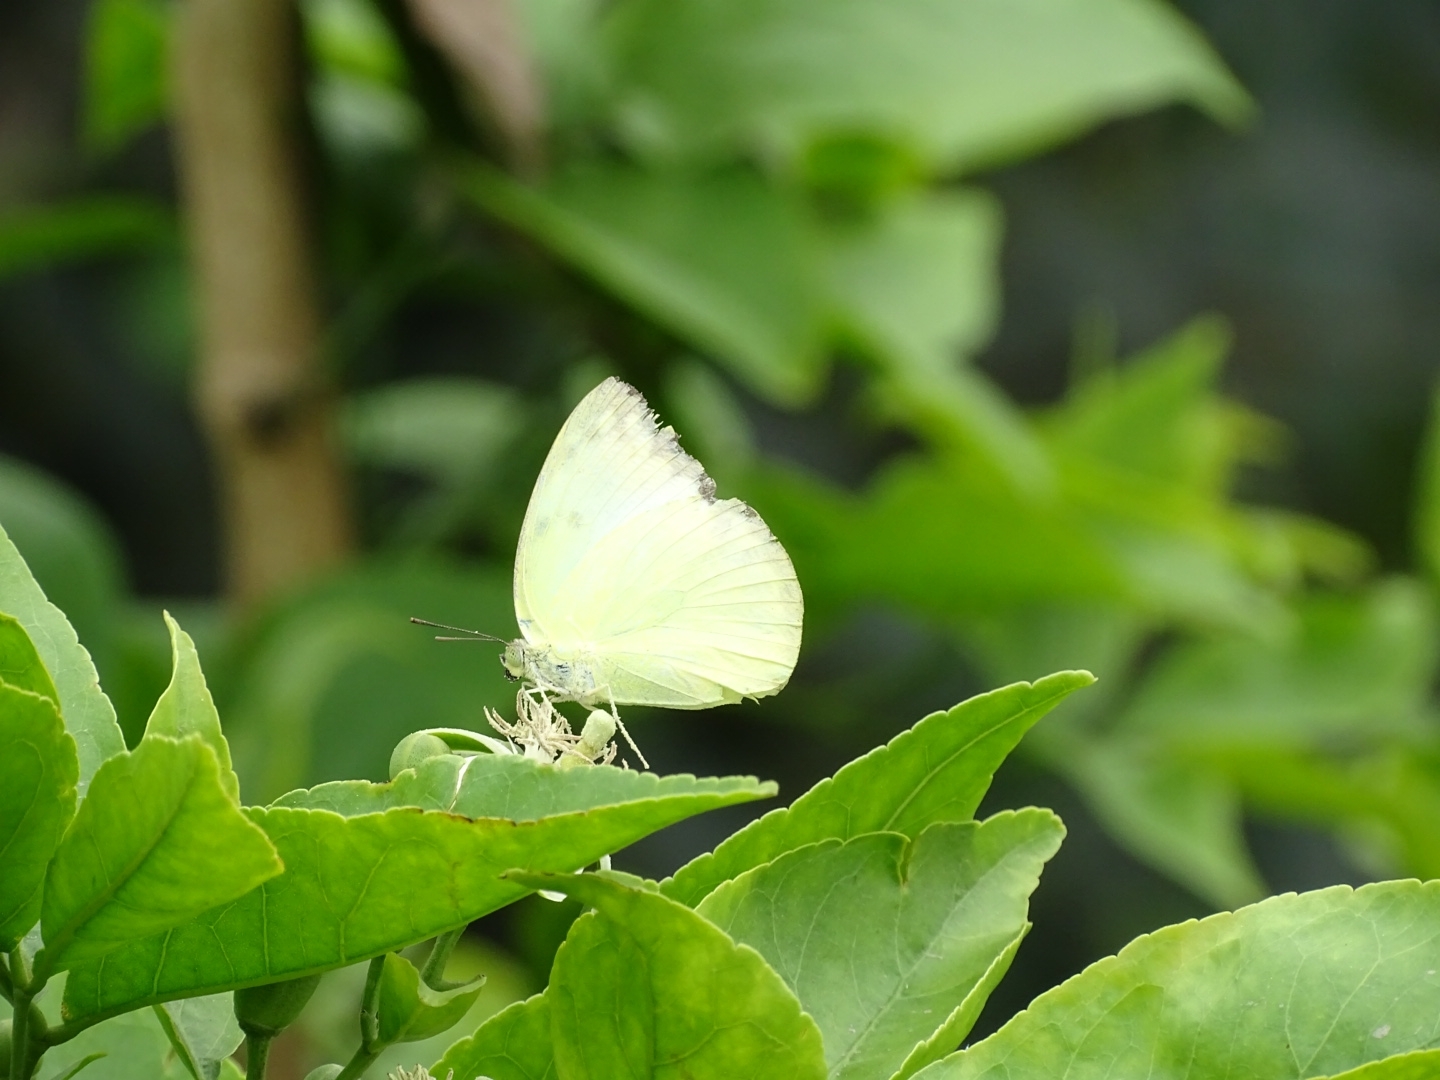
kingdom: Animalia
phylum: Arthropoda
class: Insecta
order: Lepidoptera
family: Pieridae
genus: Catopsilia
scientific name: Catopsilia pomona
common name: Common emigrant
